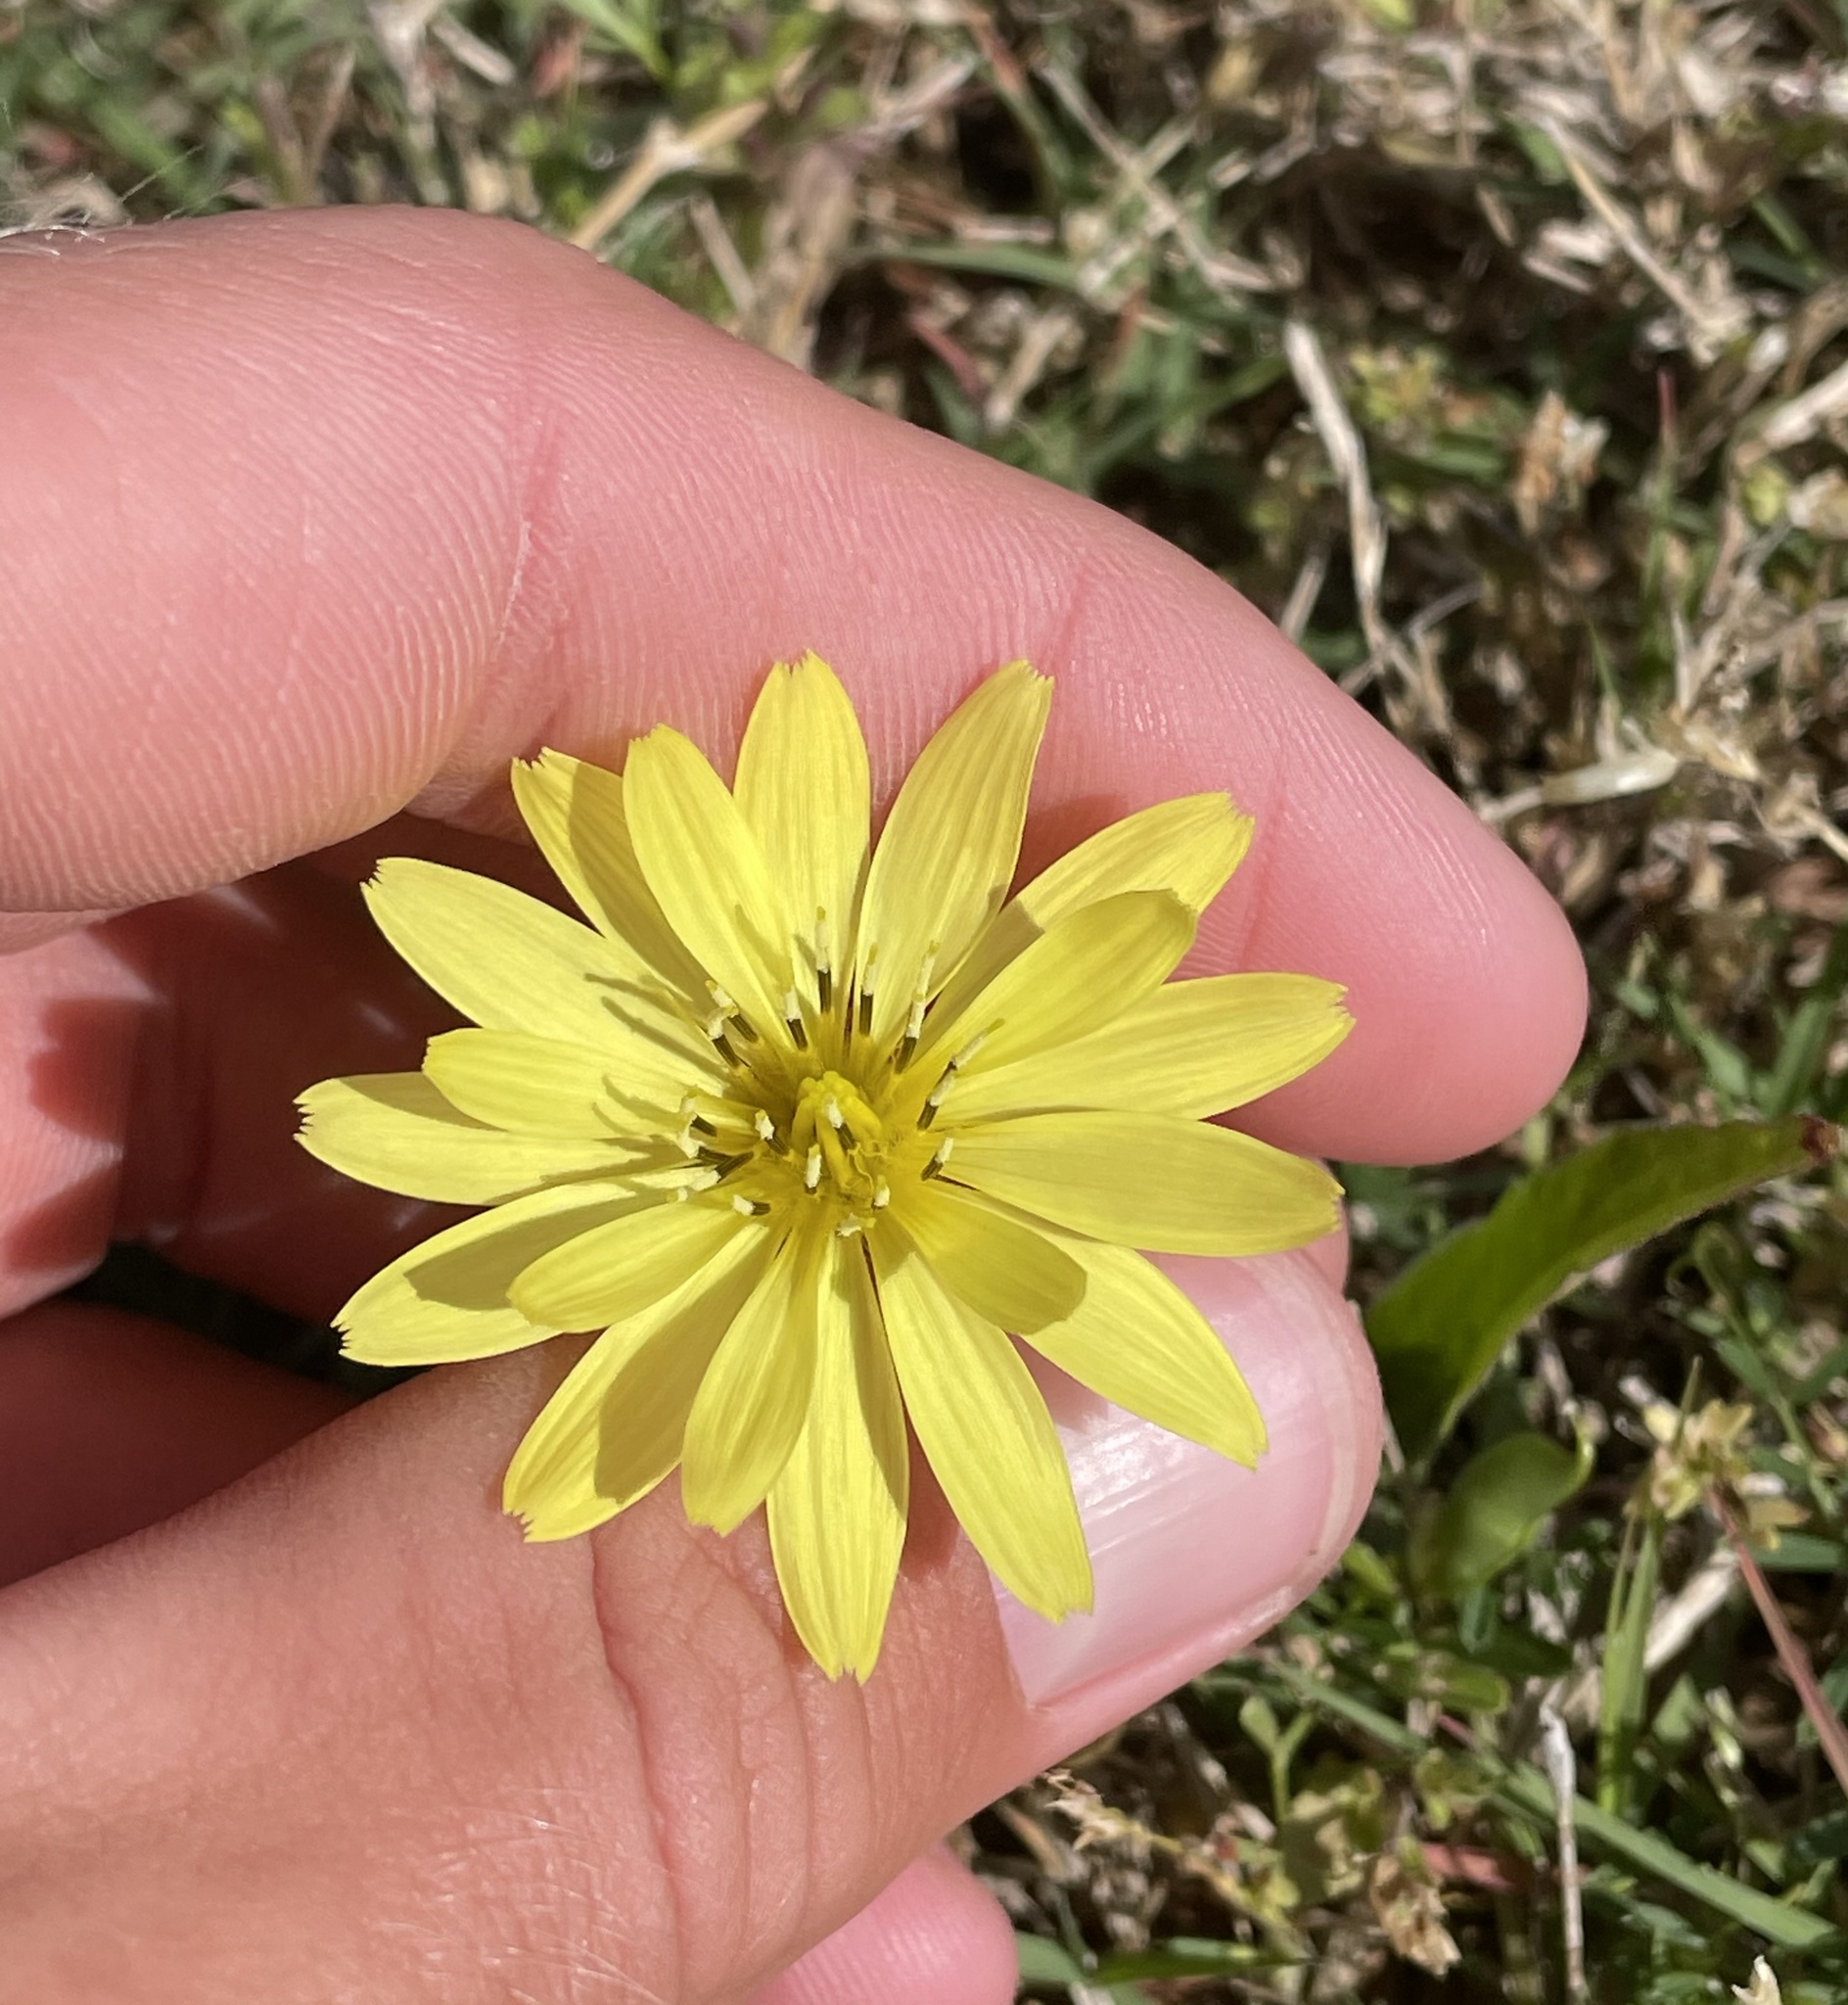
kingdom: Plantae
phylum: Tracheophyta
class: Magnoliopsida
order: Asterales
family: Asteraceae
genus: Pyrrhopappus
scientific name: Pyrrhopappus pauciflorus
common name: Texas false dandelion
